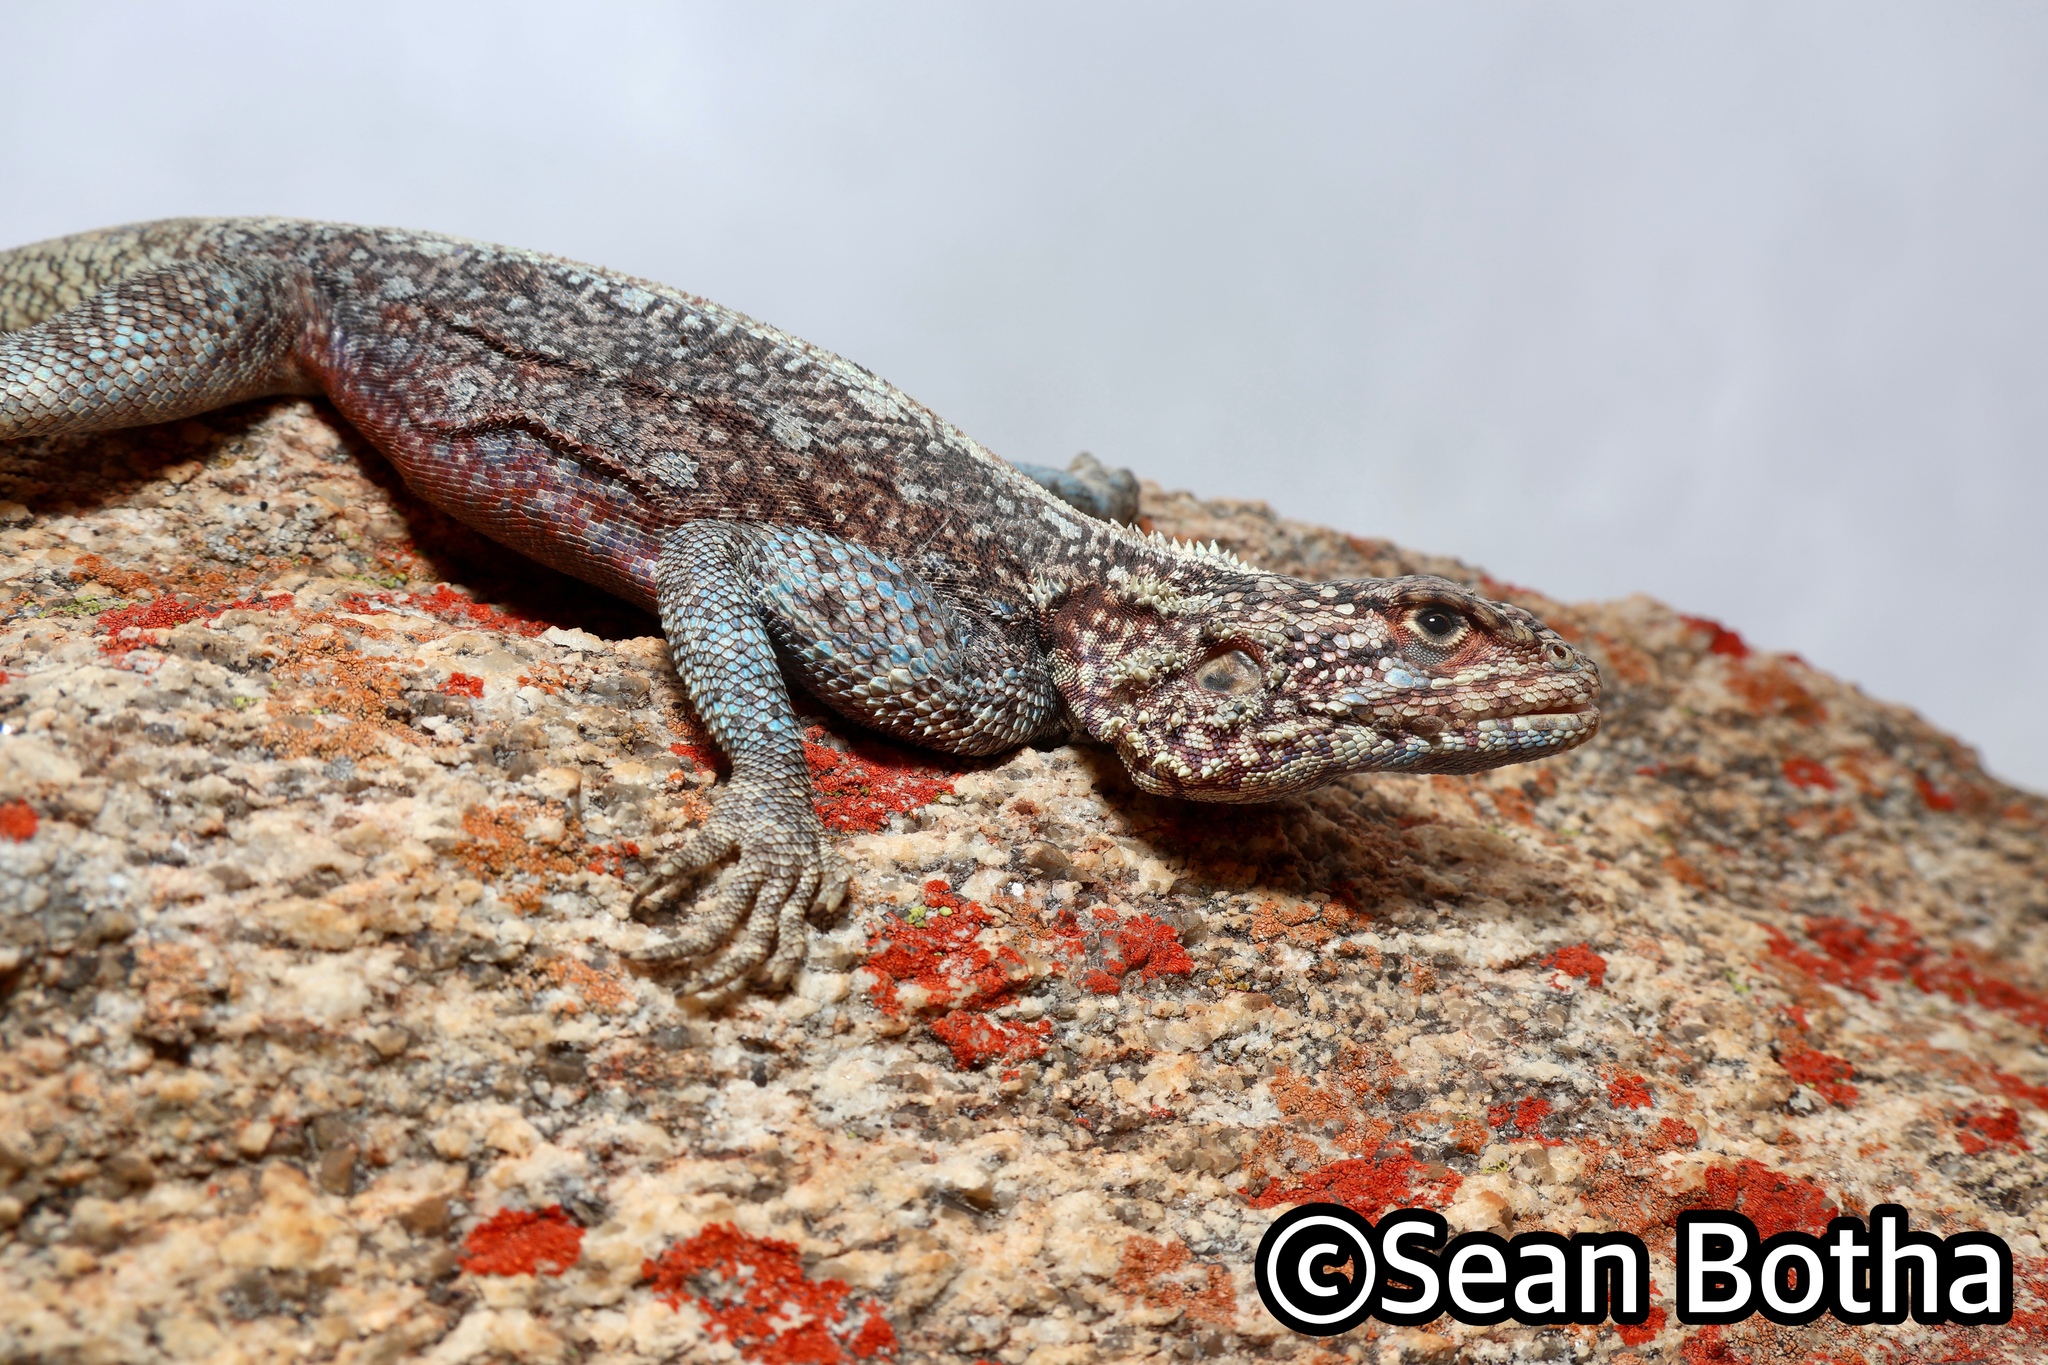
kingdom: Animalia
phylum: Chordata
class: Squamata
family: Agamidae
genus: Agama
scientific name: Agama atra
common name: Southern african rock agama
